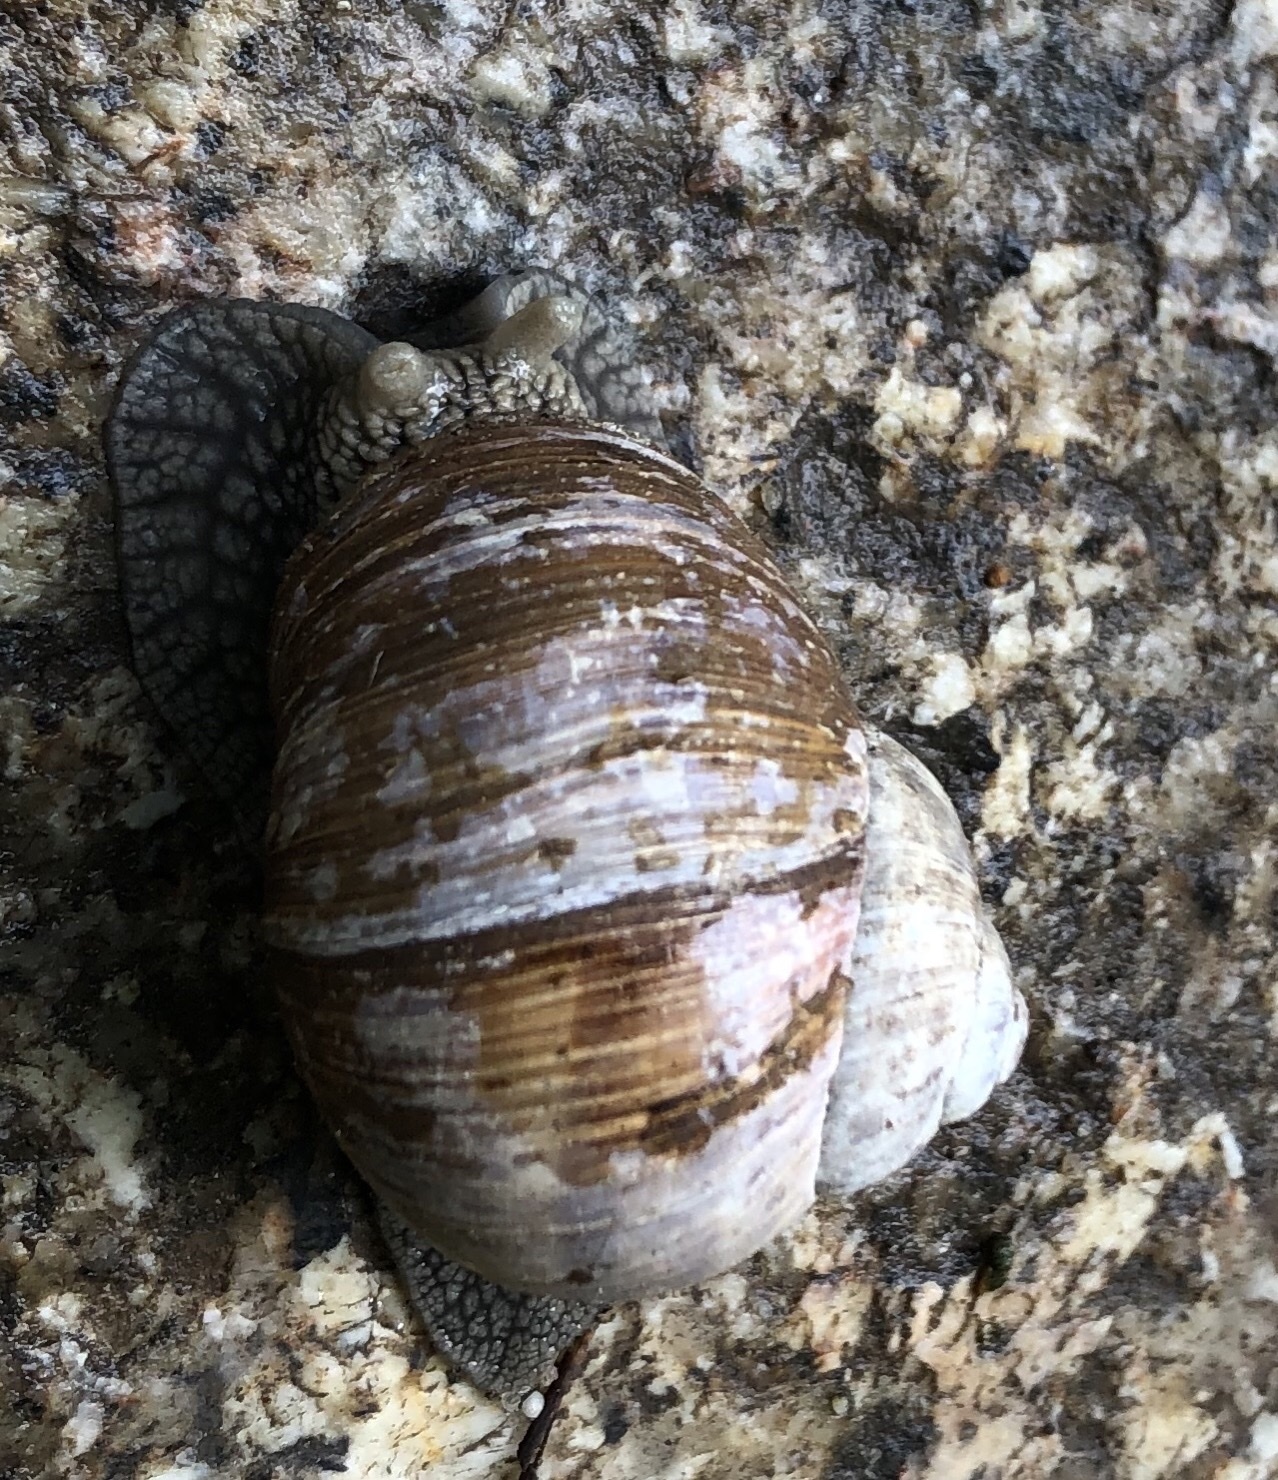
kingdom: Animalia
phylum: Mollusca
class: Gastropoda
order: Stylommatophora
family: Helicidae
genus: Helix
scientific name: Helix pomatia
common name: Roman snail
